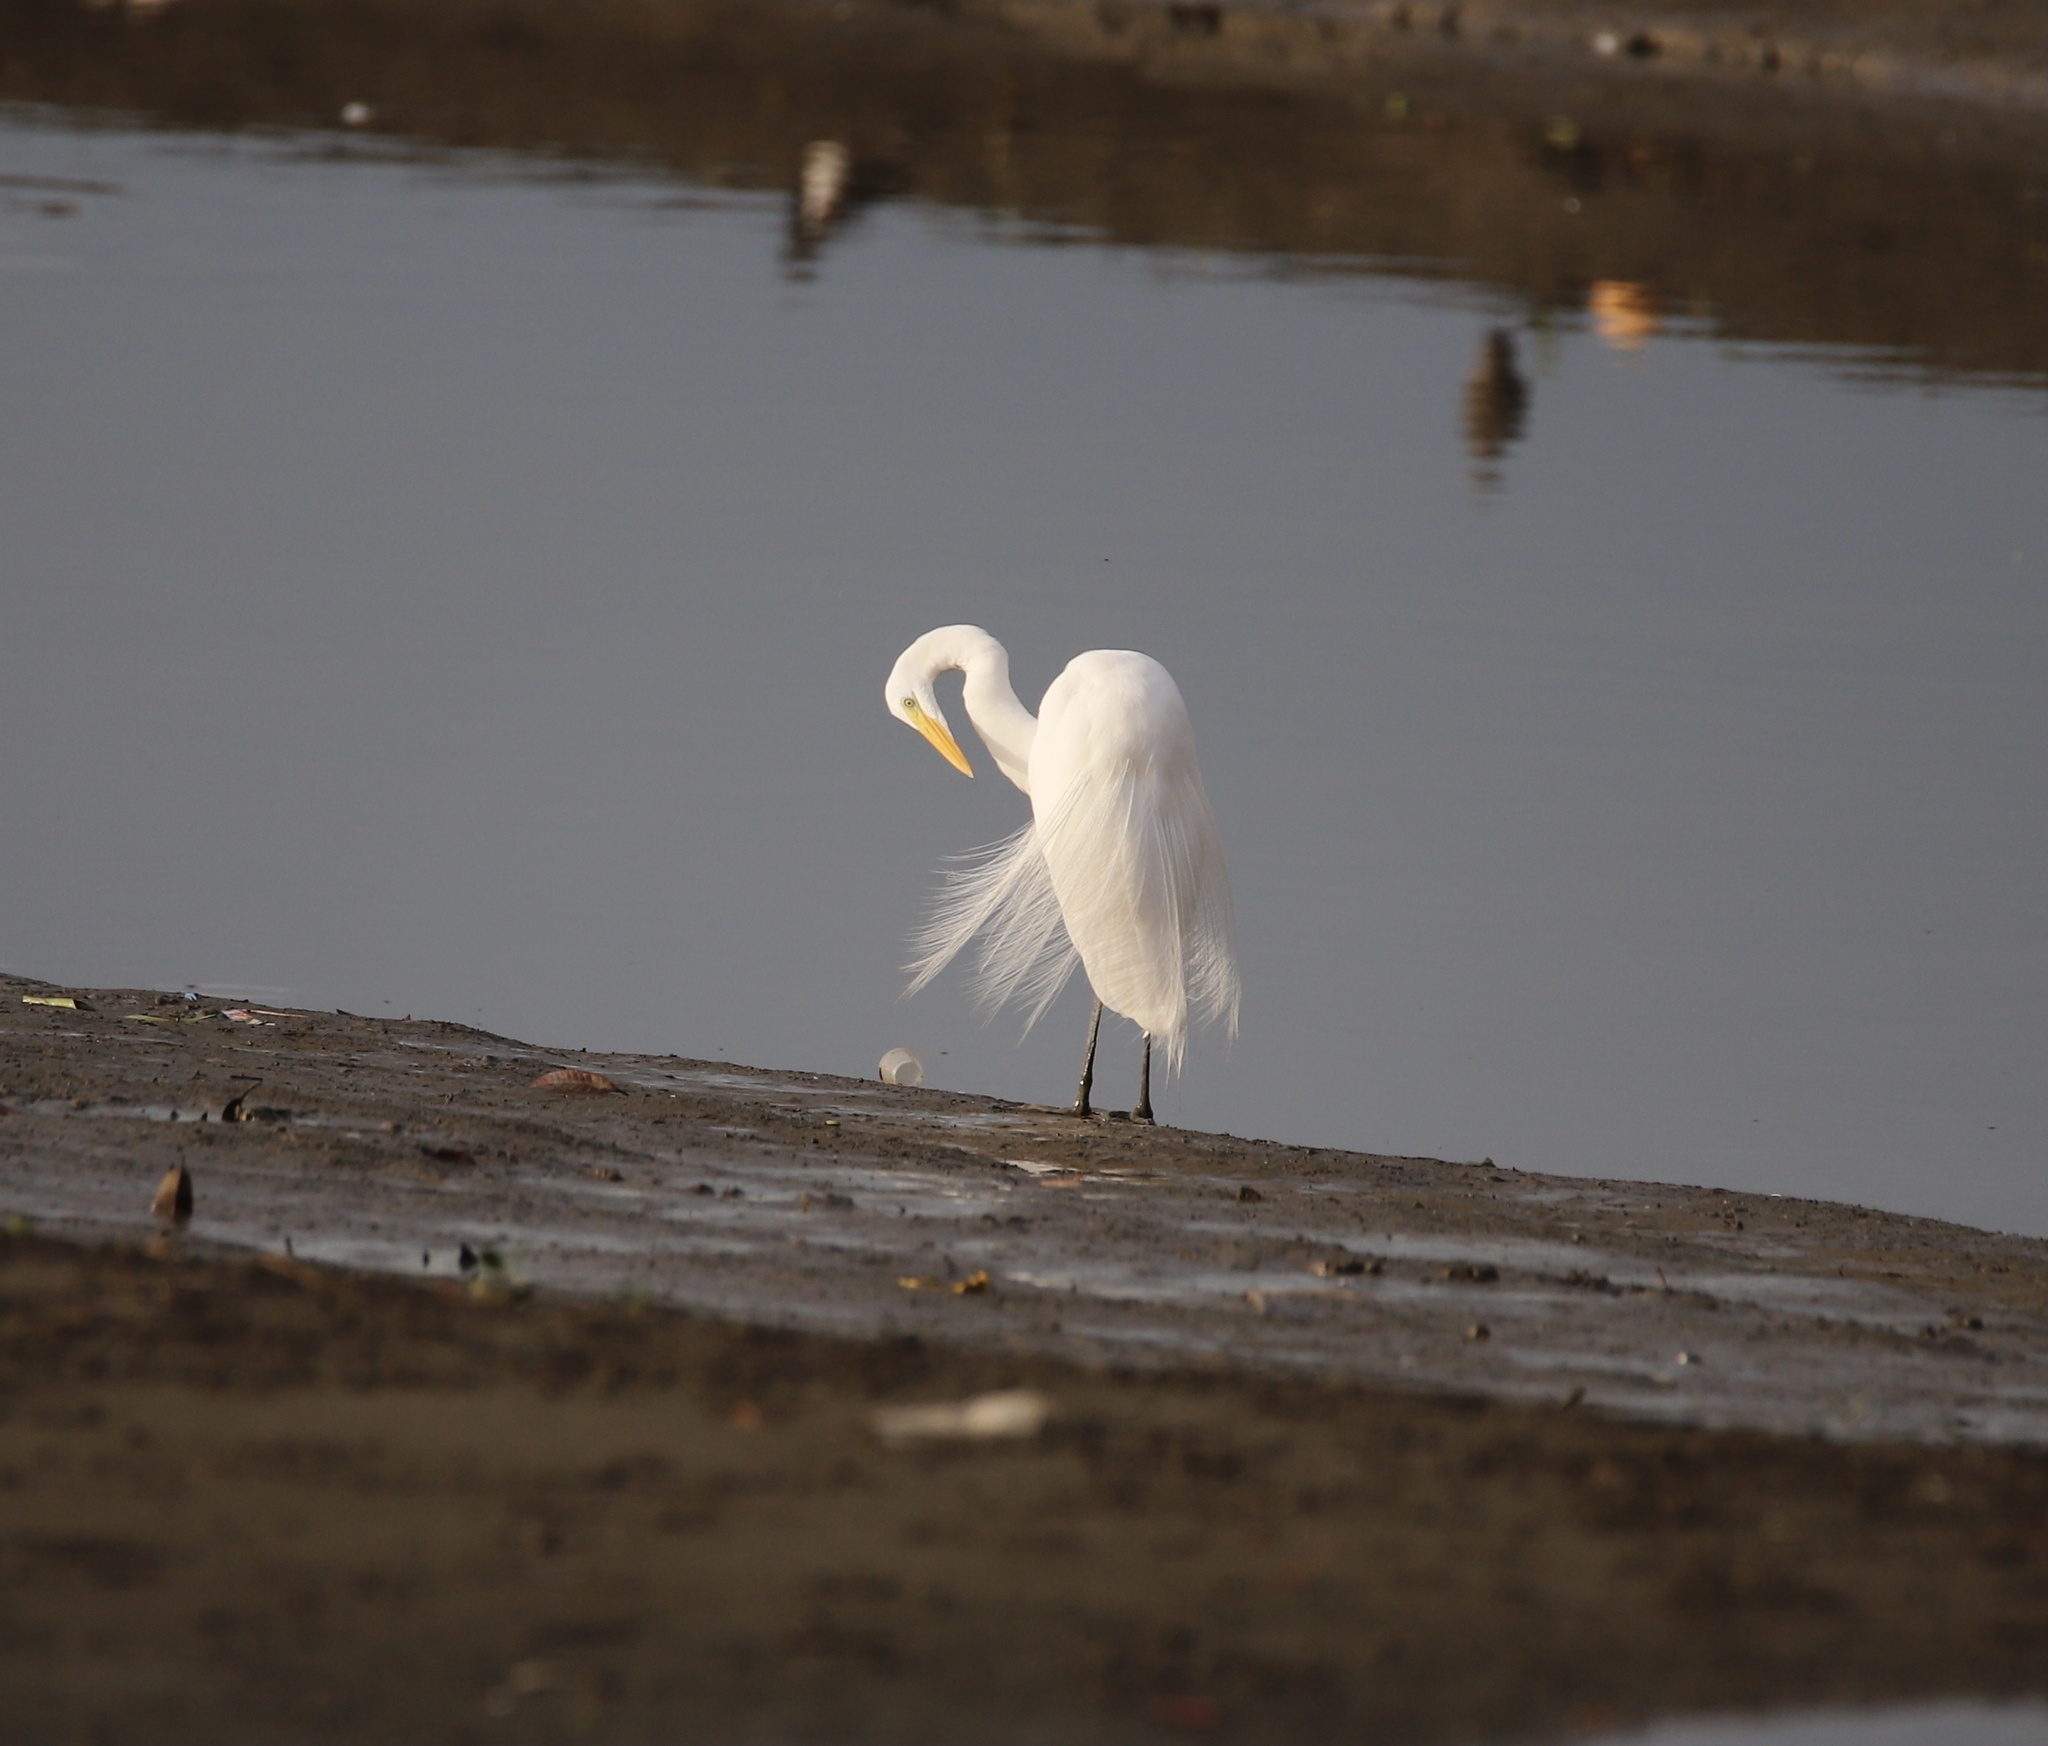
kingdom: Animalia
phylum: Chordata
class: Aves
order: Pelecaniformes
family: Ardeidae
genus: Ardea
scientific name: Ardea alba
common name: Great egret
